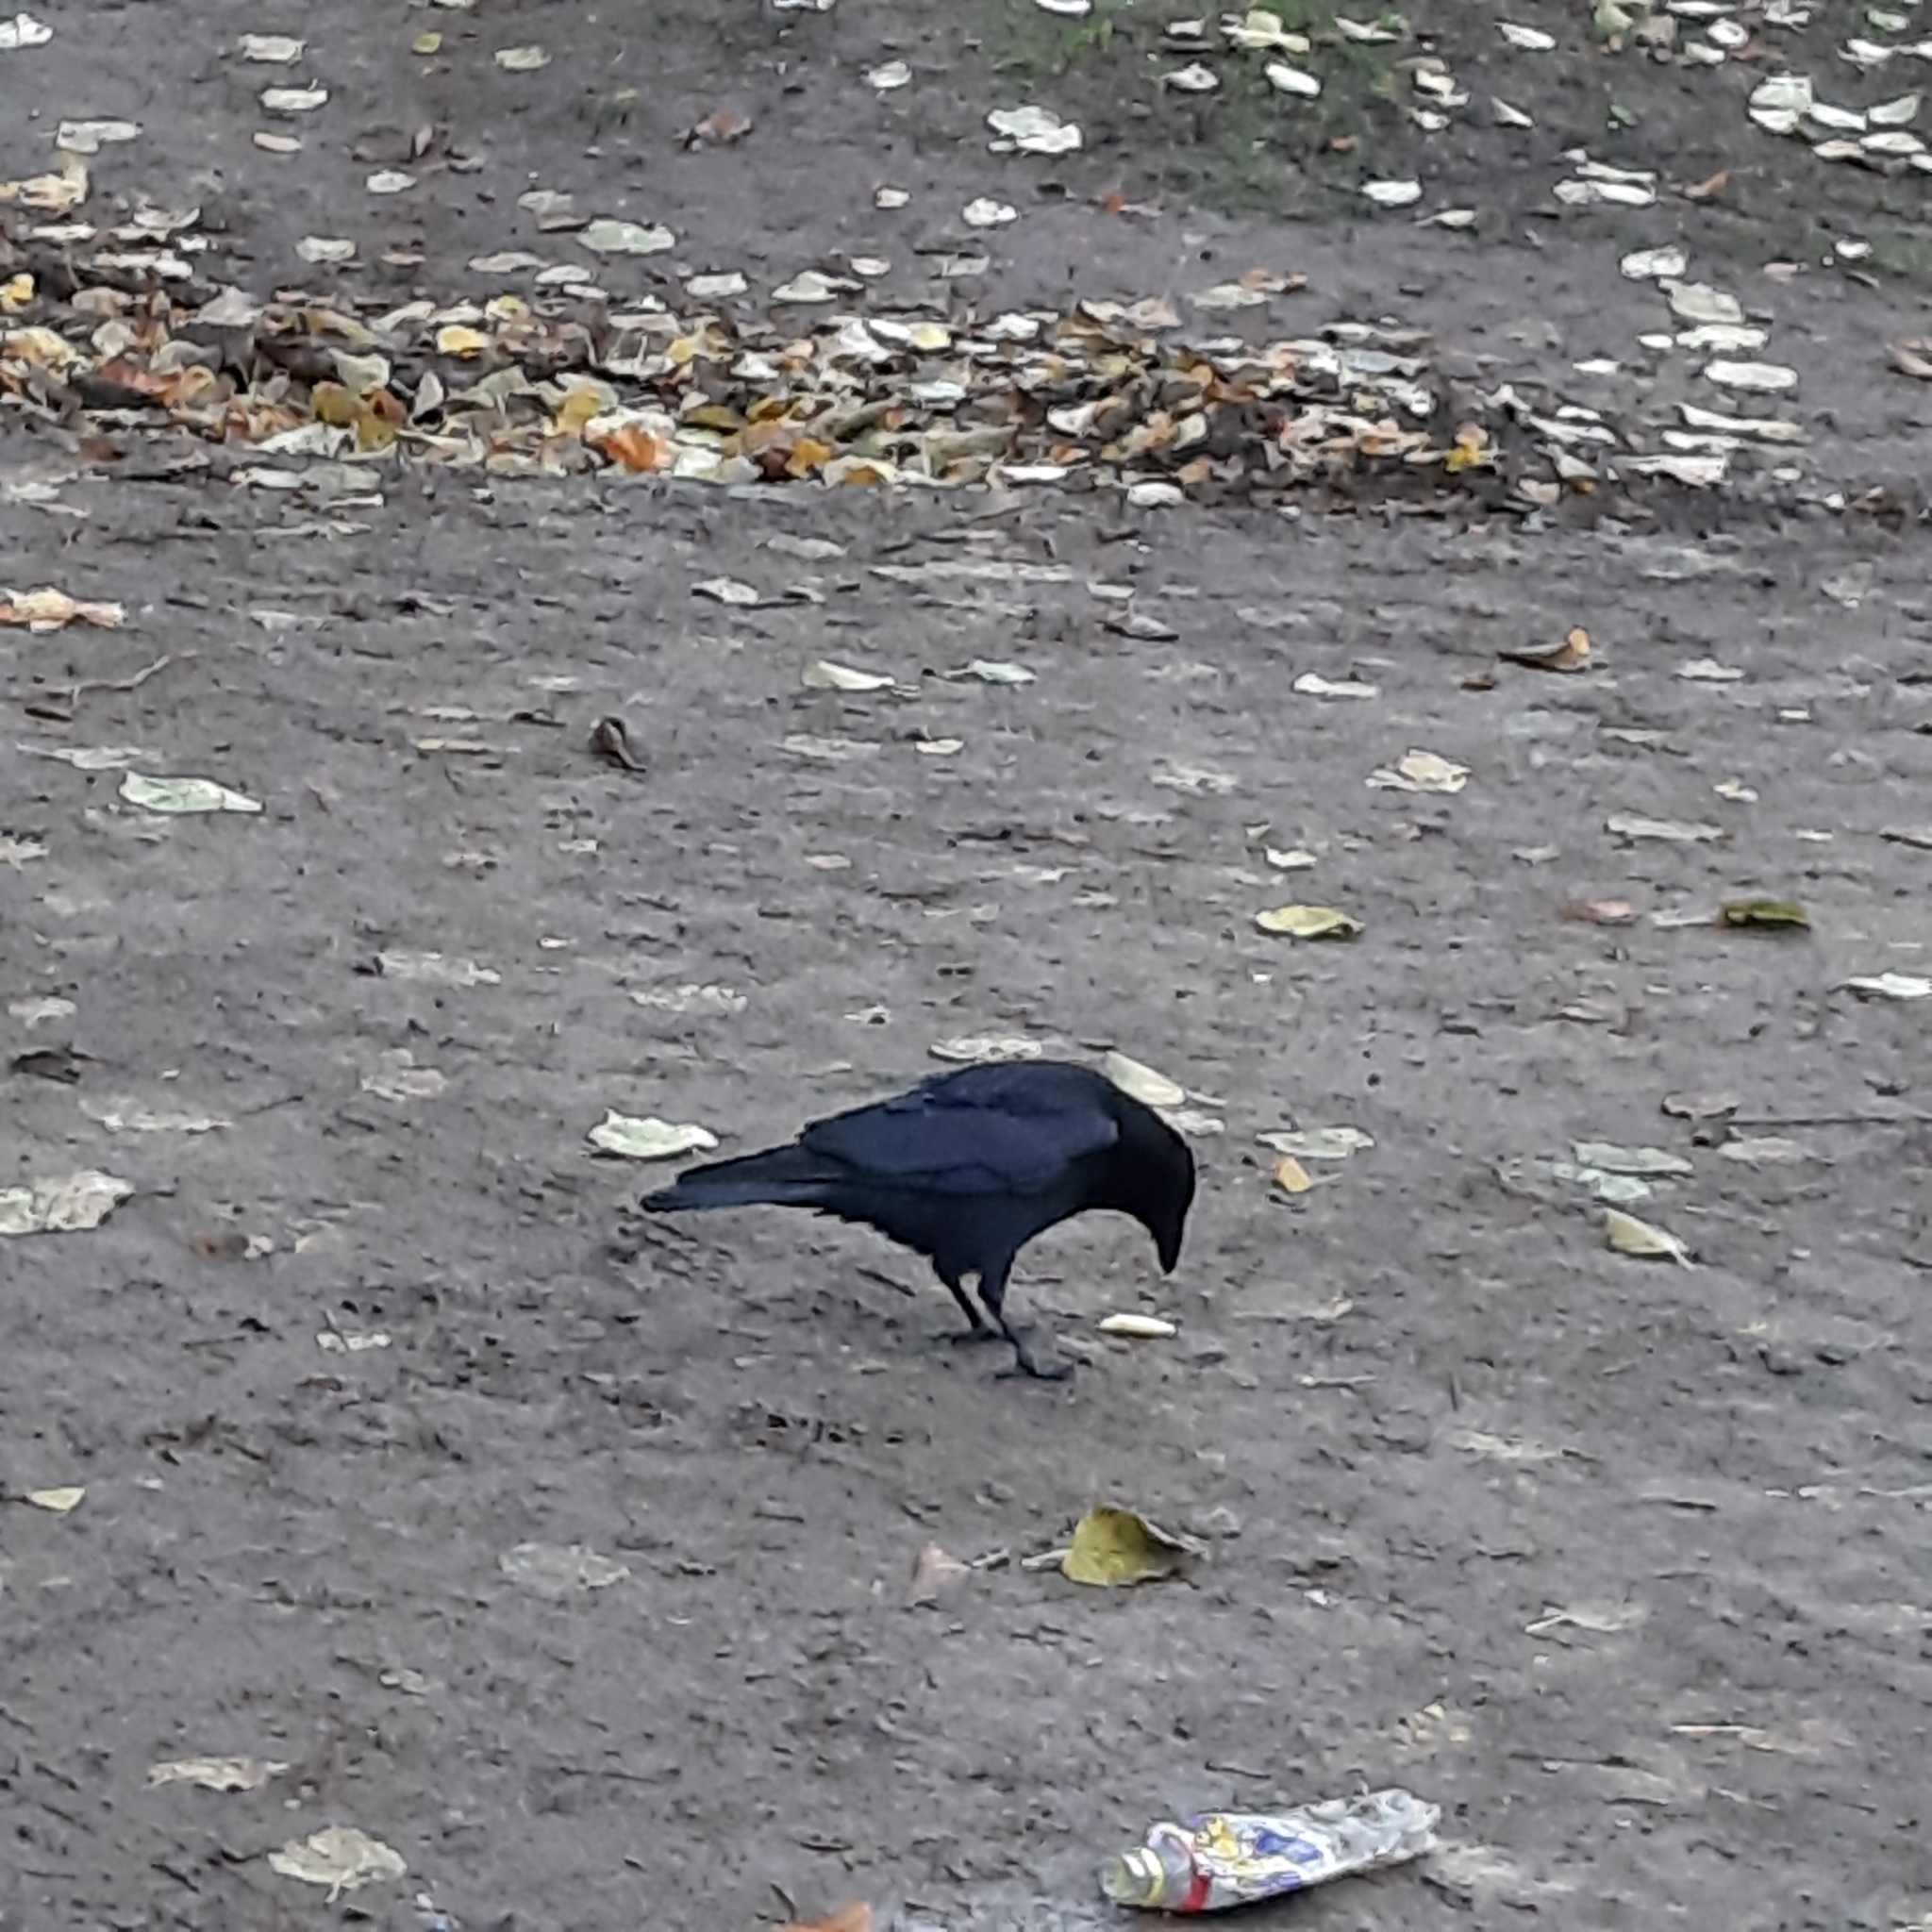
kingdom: Animalia
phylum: Chordata
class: Aves
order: Passeriformes
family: Corvidae
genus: Corvus
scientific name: Corvus corone
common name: Carrion crow
